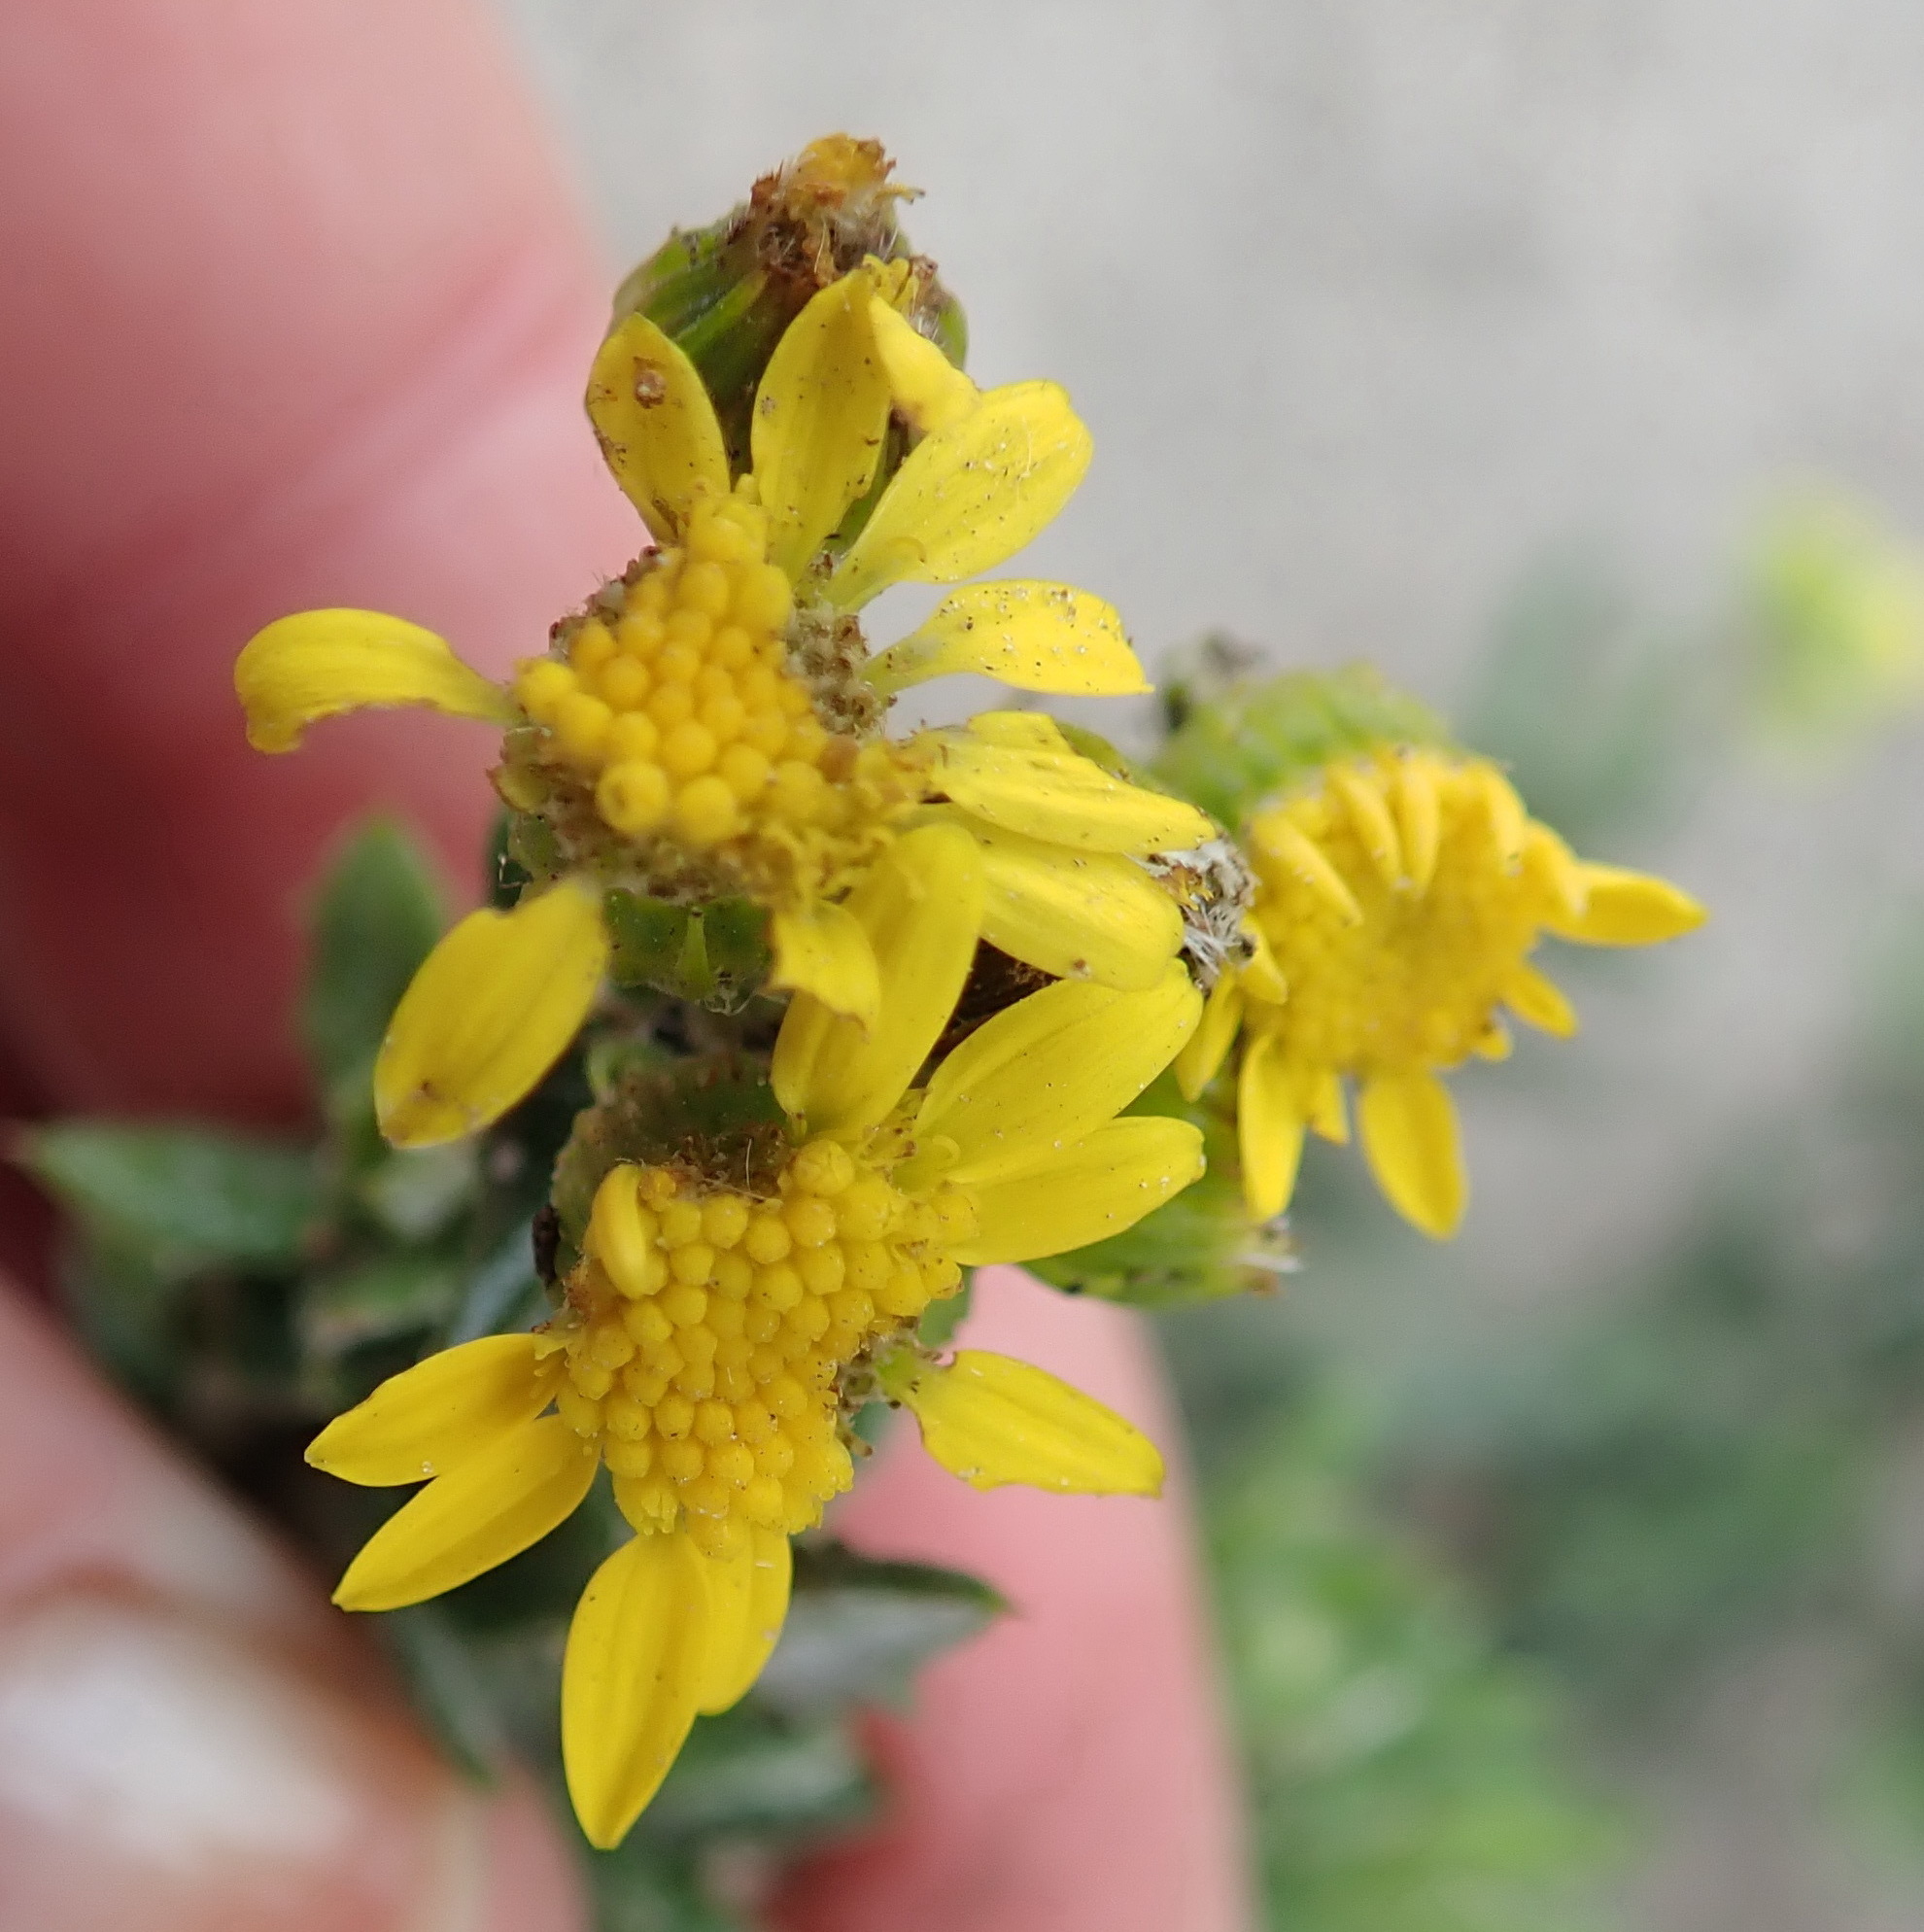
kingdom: Plantae
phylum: Tracheophyta
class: Magnoliopsida
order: Asterales
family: Asteraceae
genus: Senecio
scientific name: Senecio ilicifolius
